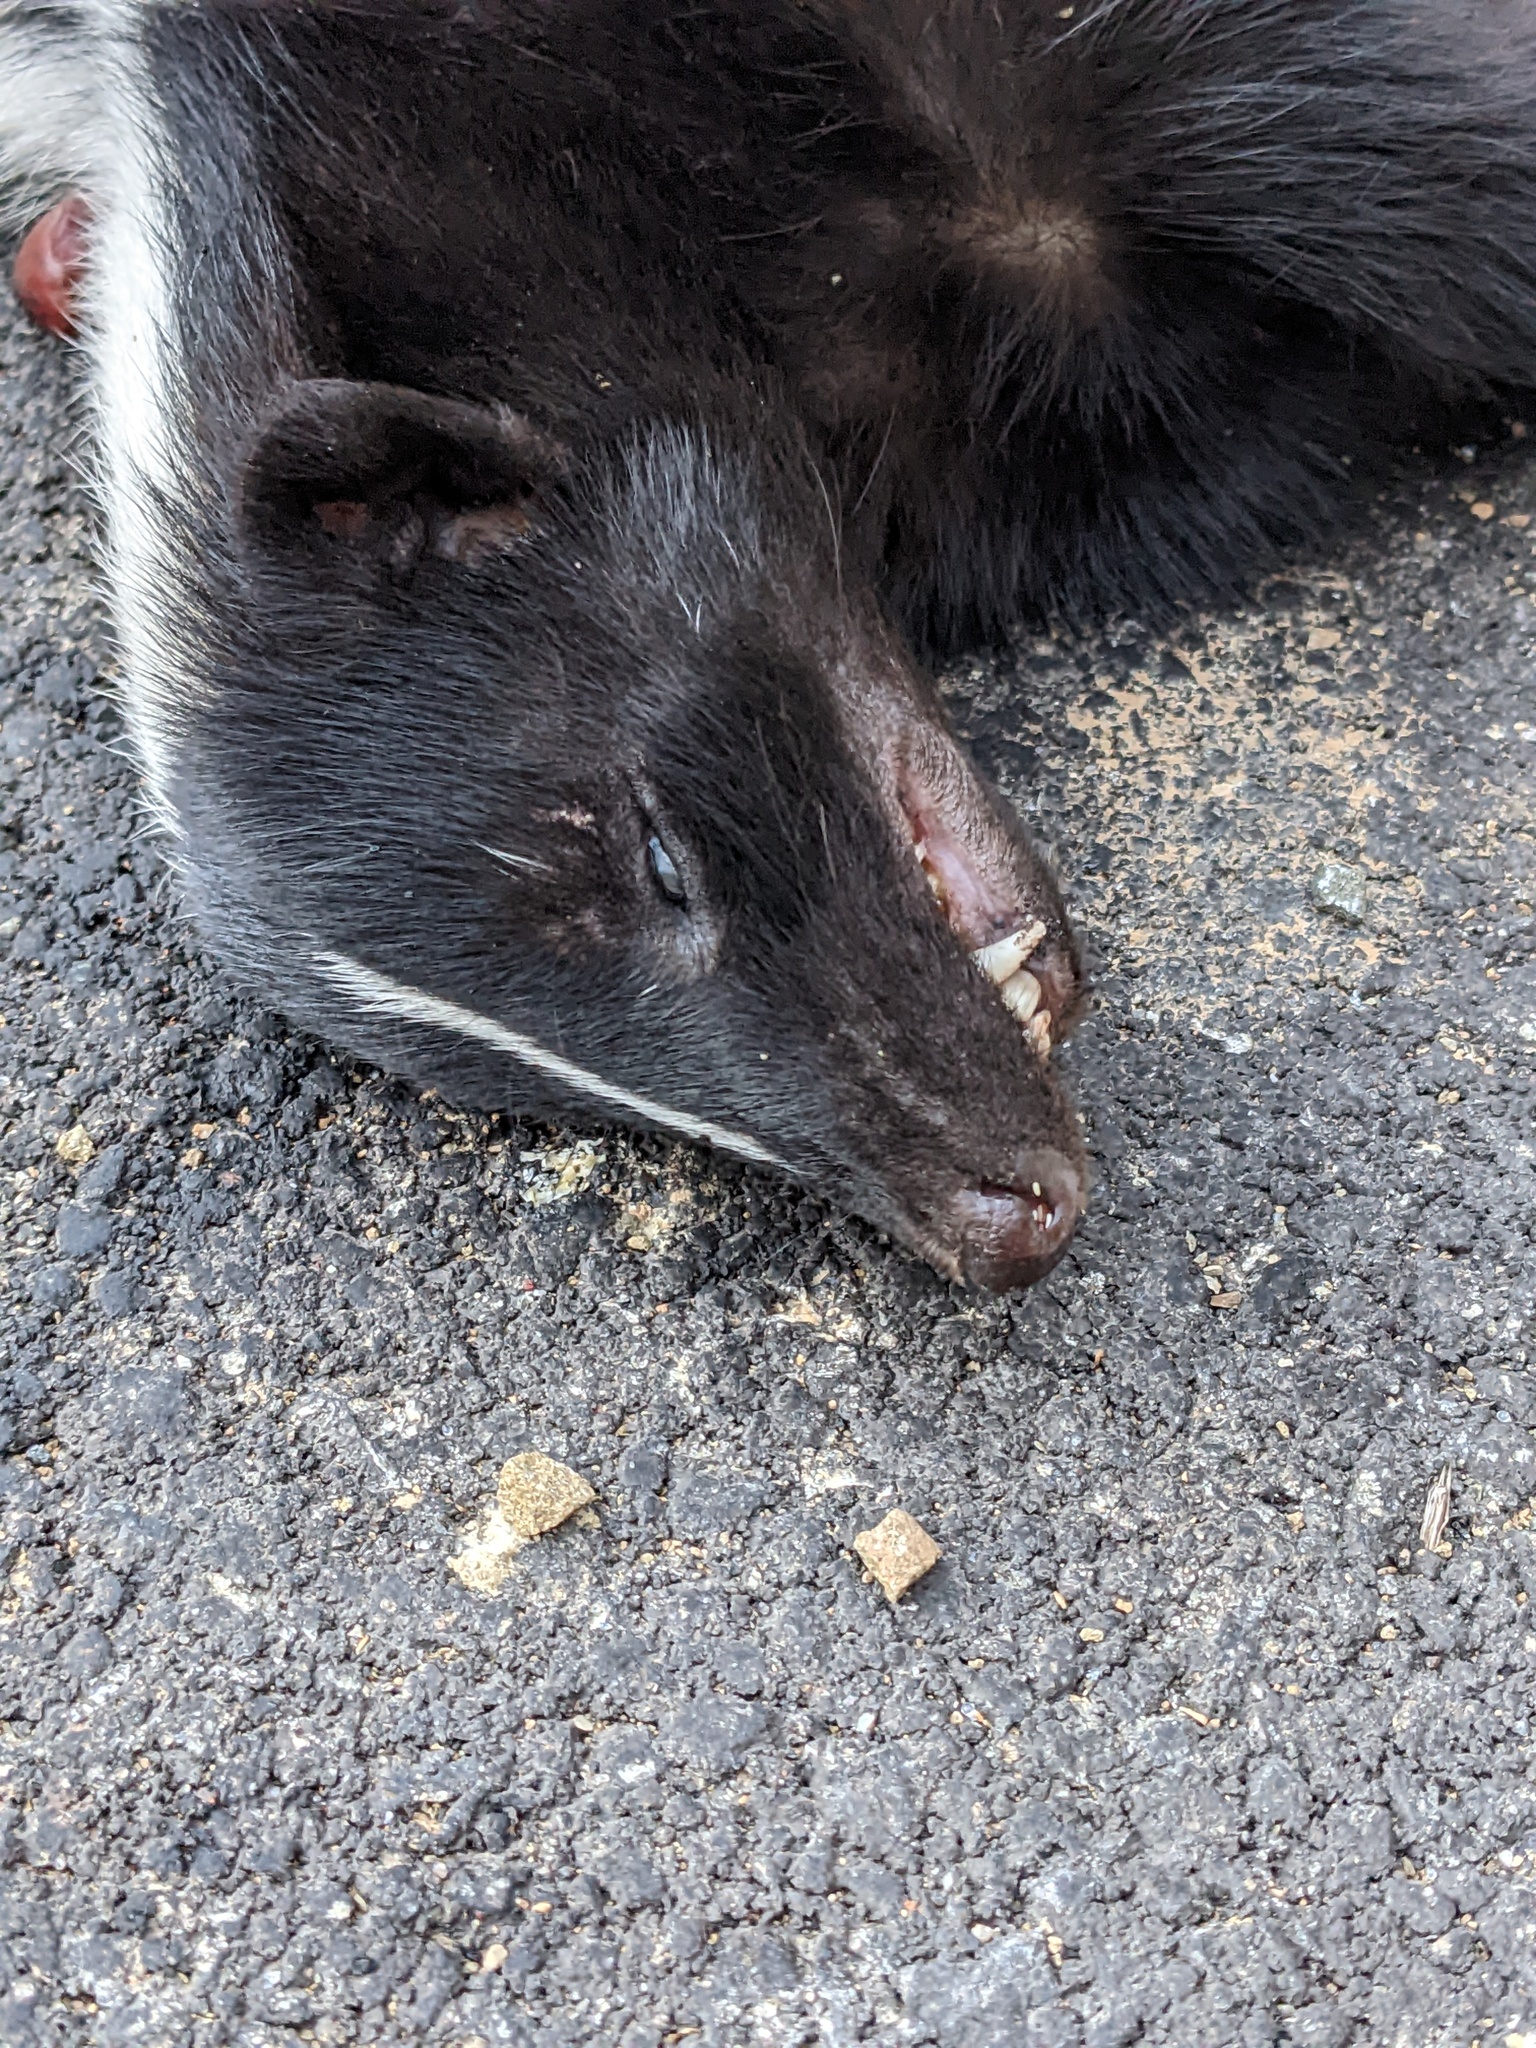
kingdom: Animalia
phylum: Chordata
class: Mammalia
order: Carnivora
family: Mephitidae
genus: Mephitis
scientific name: Mephitis mephitis
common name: Striped skunk
